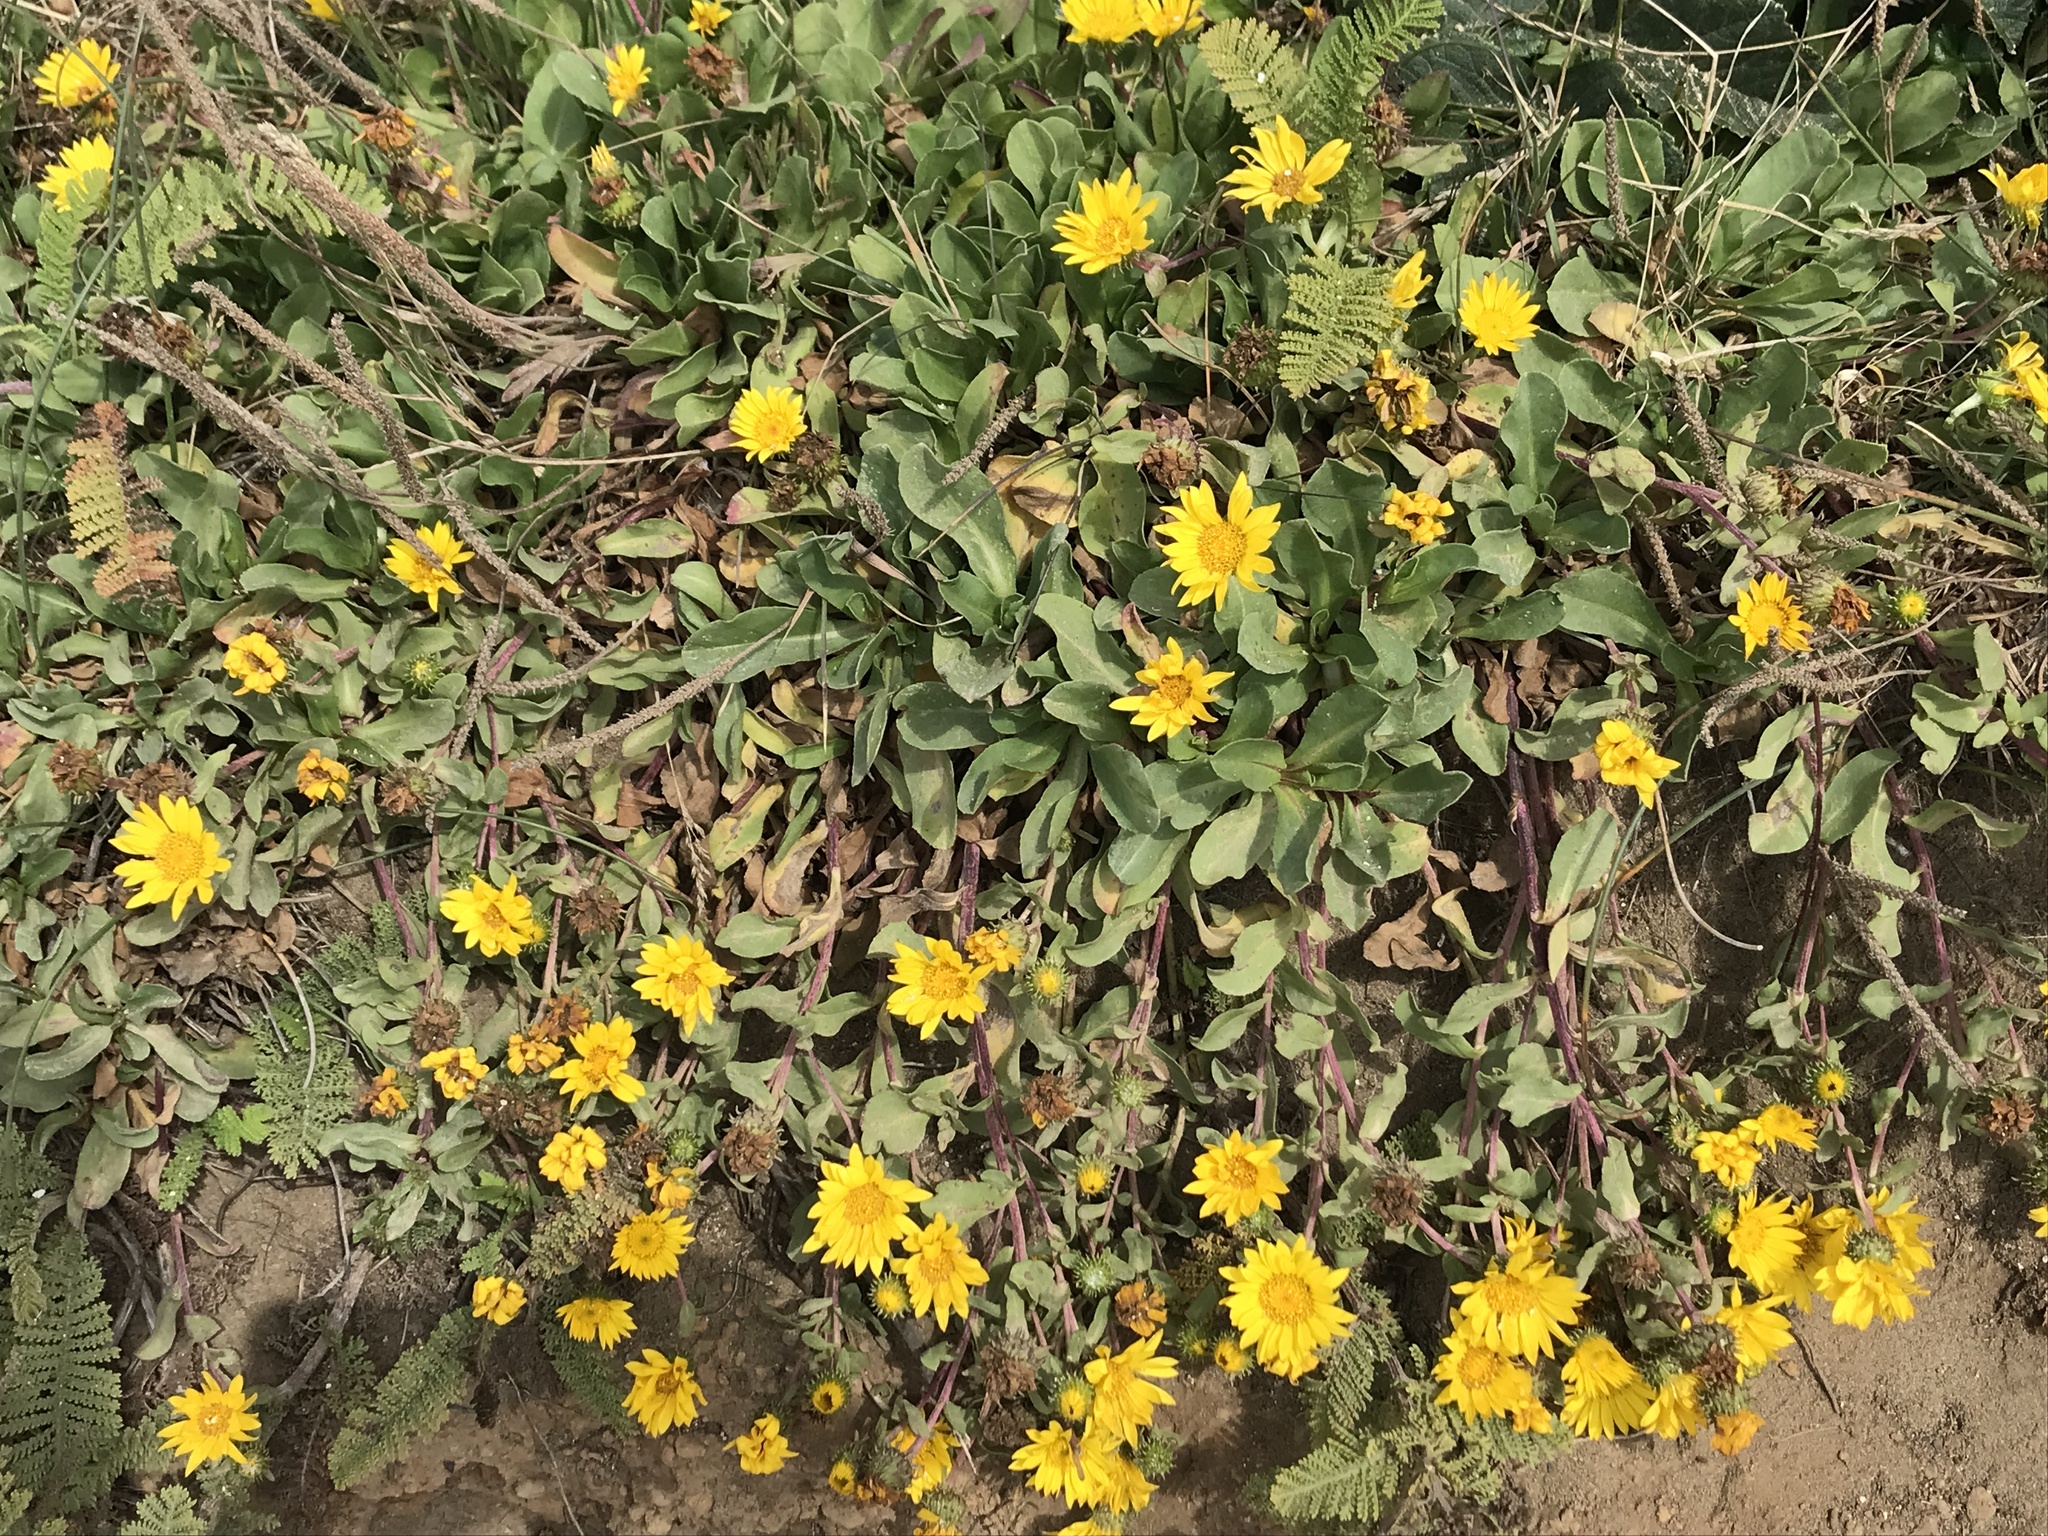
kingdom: Plantae
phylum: Tracheophyta
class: Magnoliopsida
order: Asterales
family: Asteraceae
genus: Grindelia
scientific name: Grindelia hirsutula
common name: Hairy gumweed
